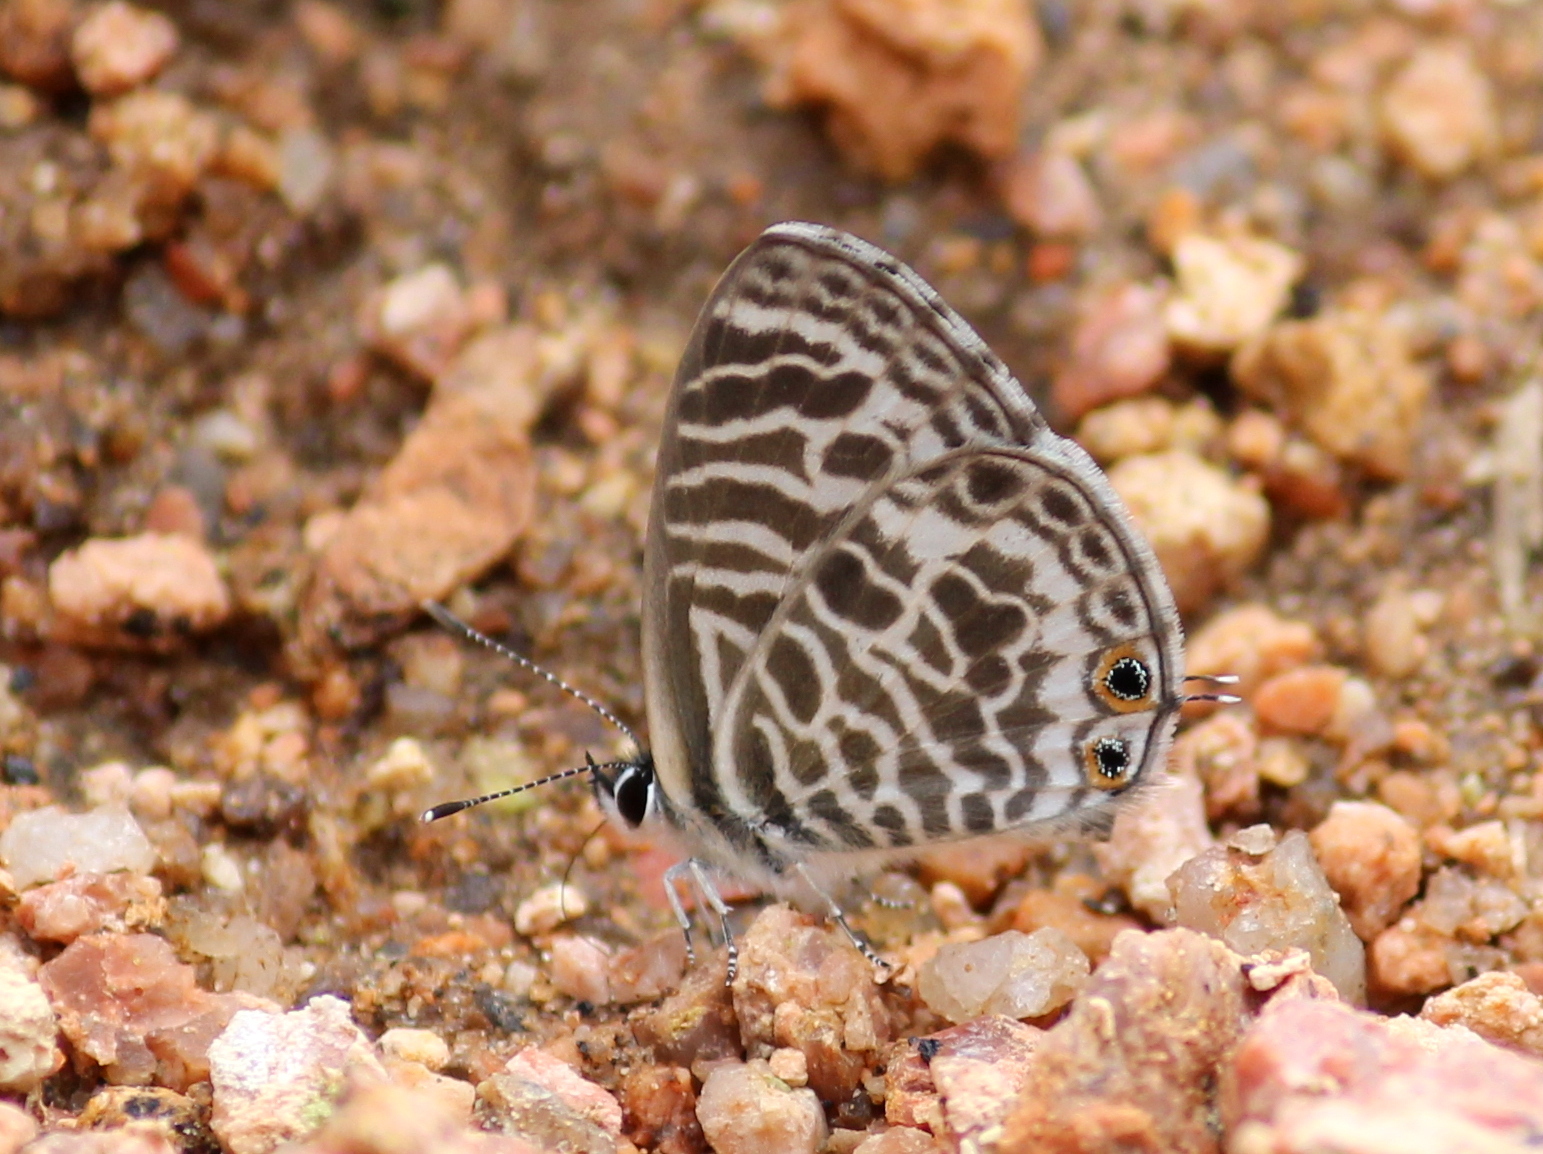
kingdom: Animalia
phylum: Arthropoda
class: Insecta
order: Lepidoptera
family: Lycaenidae
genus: Leptotes
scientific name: Leptotes plinius
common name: Zebra blue
